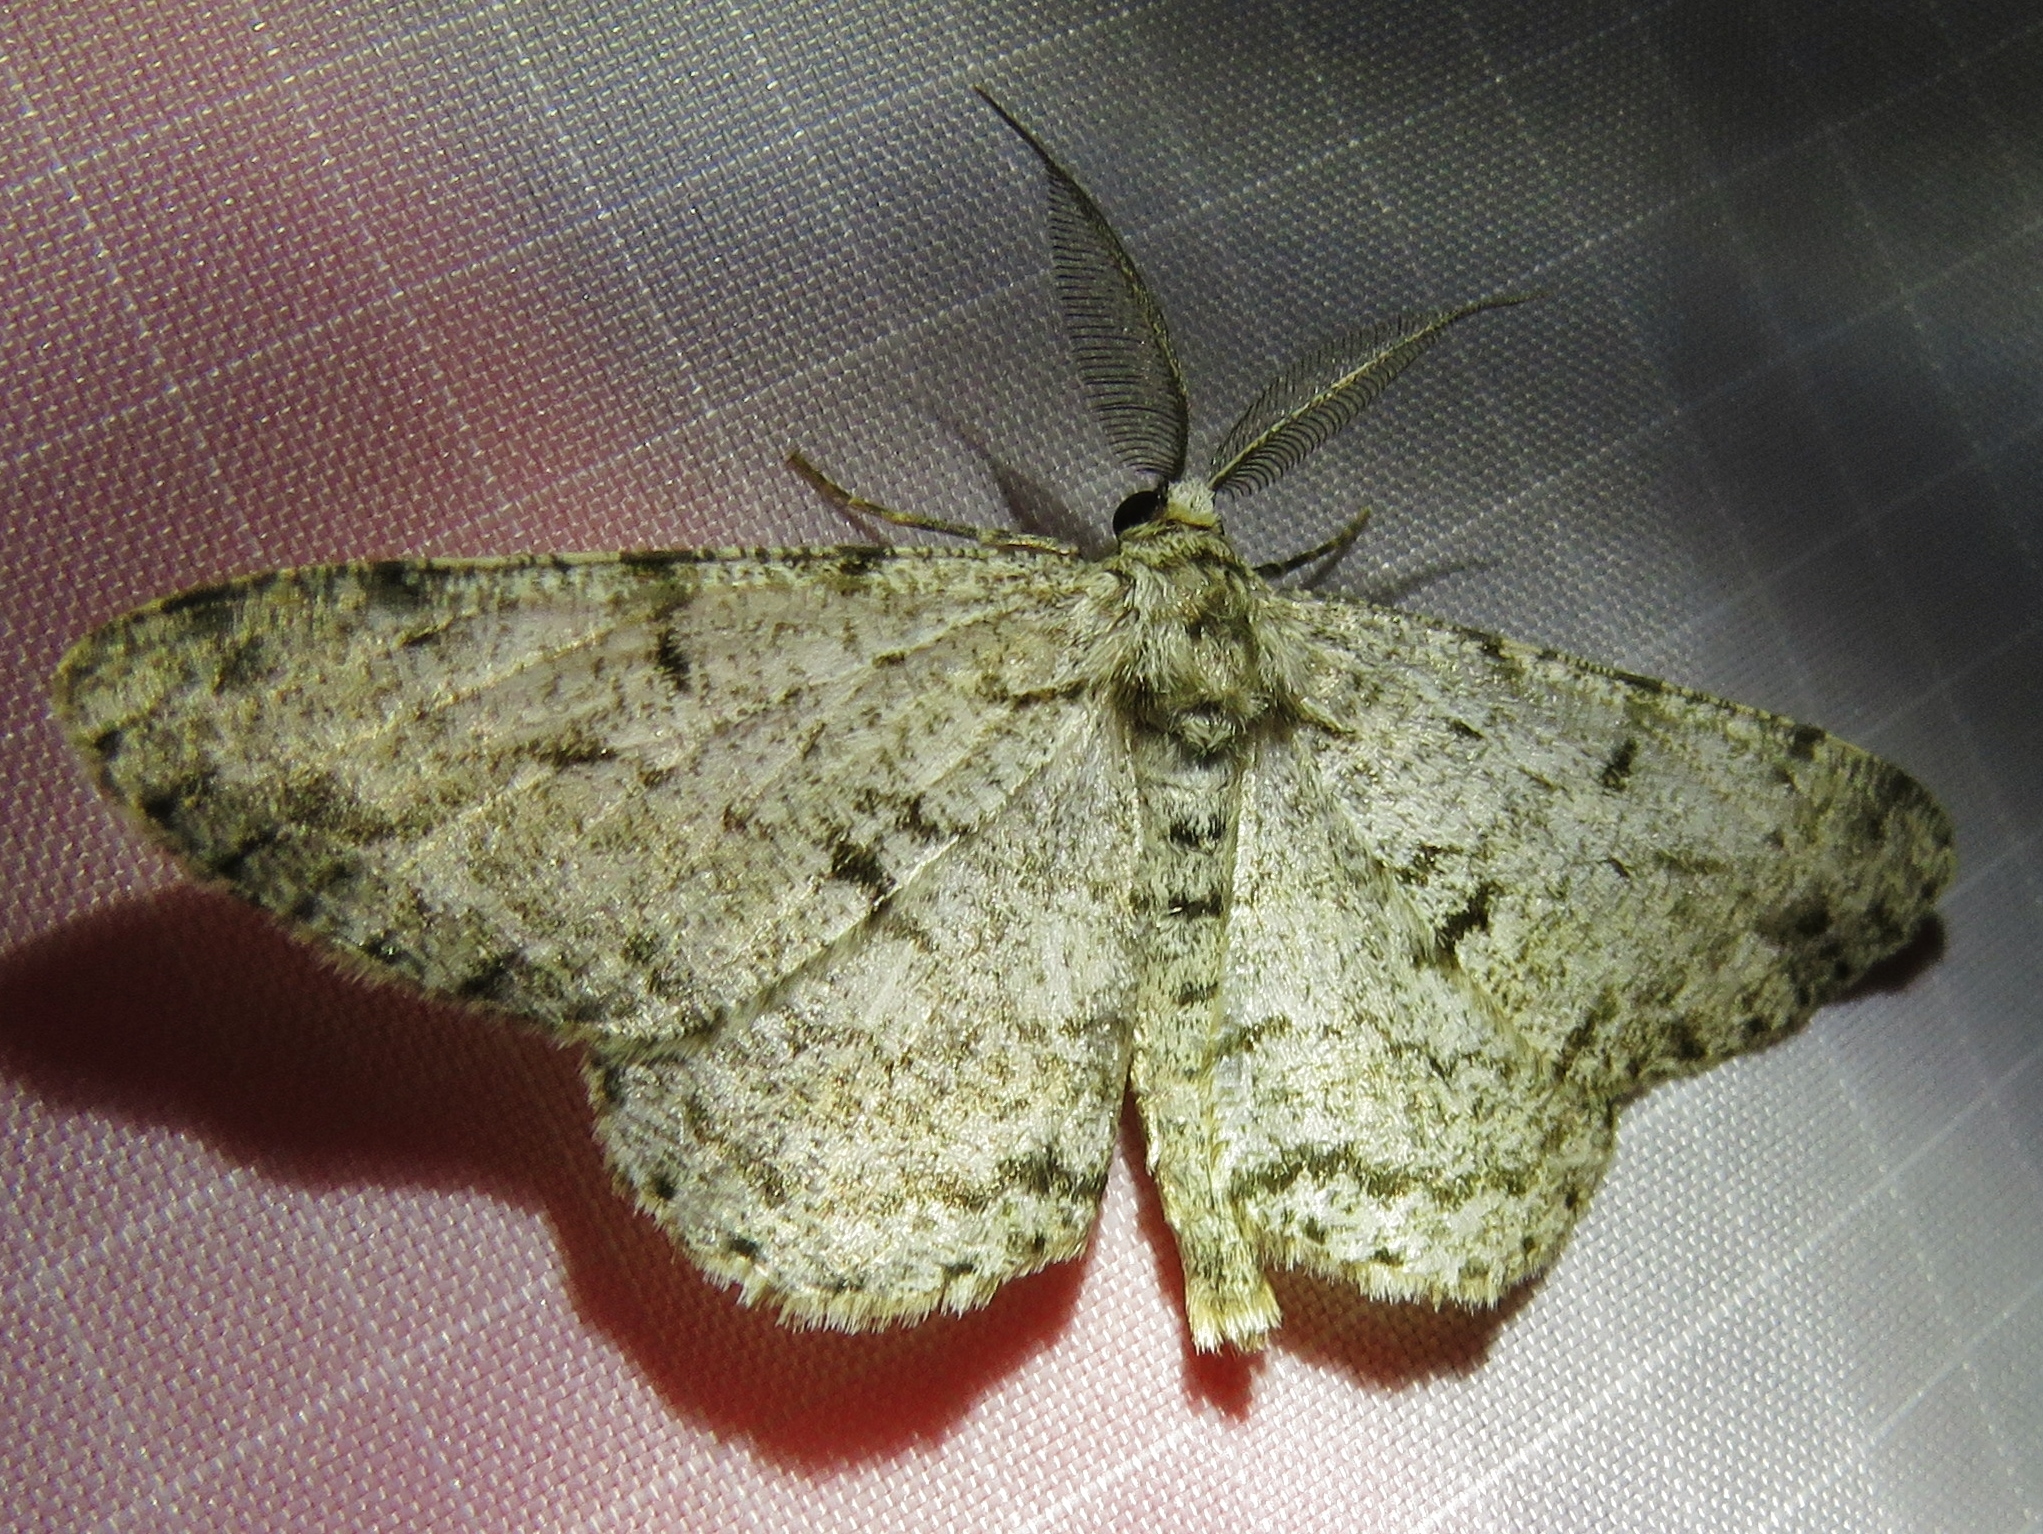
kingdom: Animalia
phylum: Arthropoda
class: Insecta
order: Lepidoptera
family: Geometridae
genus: Hypomecis
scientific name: Hypomecis roboraria
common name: Great oak beauty
